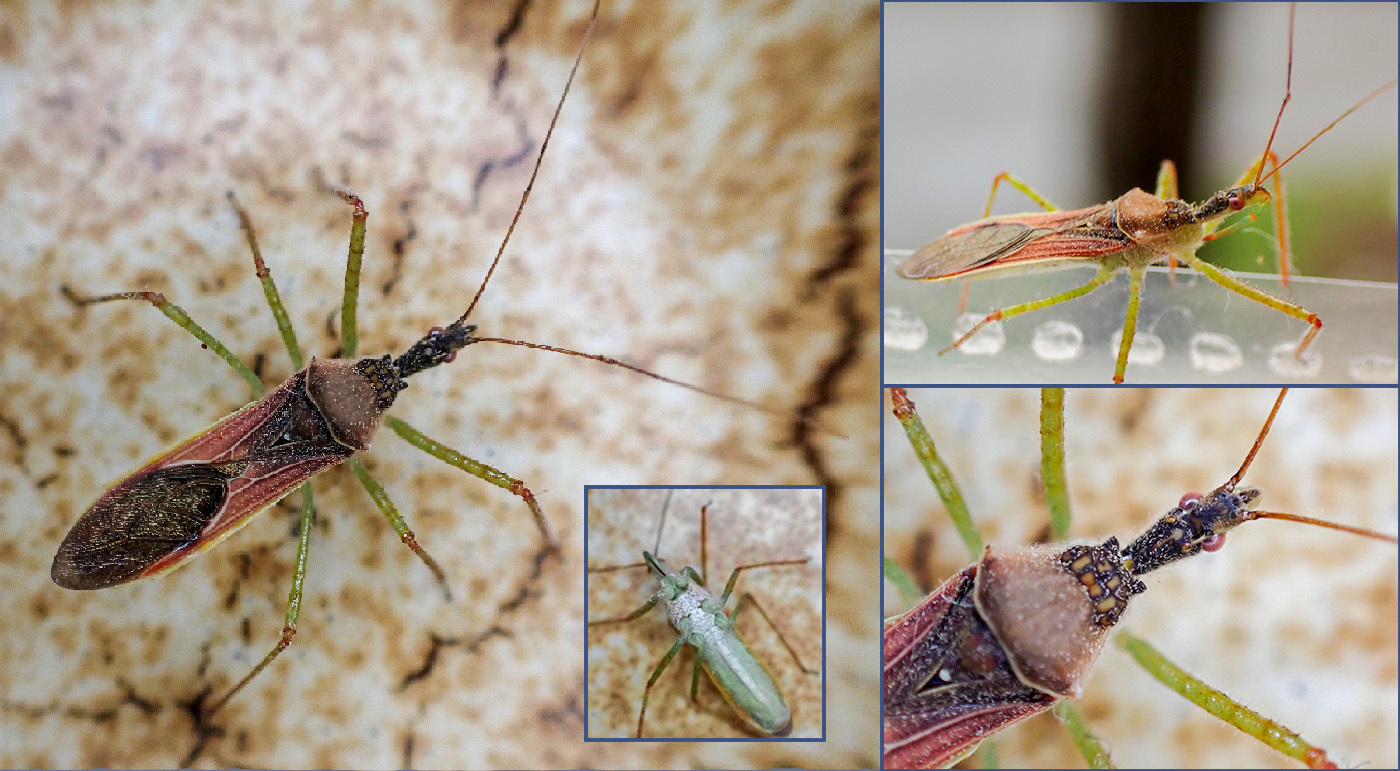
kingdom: Animalia
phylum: Arthropoda
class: Insecta
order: Hemiptera
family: Reduviidae
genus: Zelus
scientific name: Zelus renardii
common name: Assassin bug
